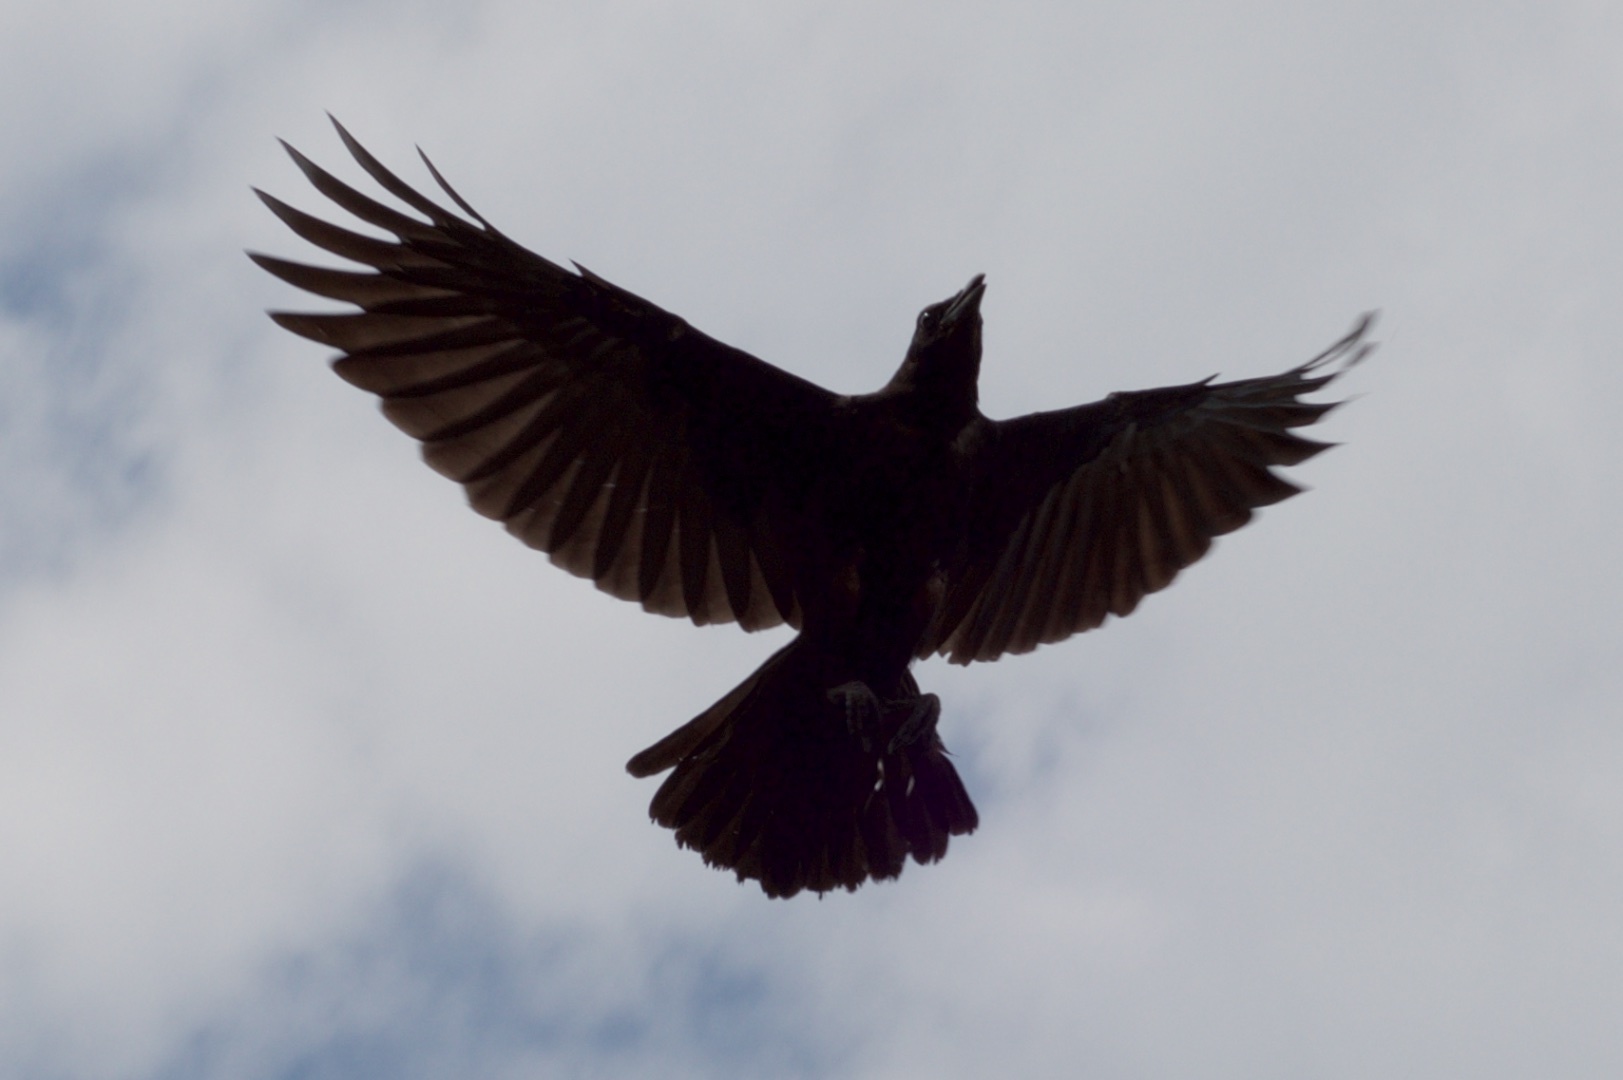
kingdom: Animalia
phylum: Chordata
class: Aves
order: Passeriformes
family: Corvidae
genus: Corvus
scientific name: Corvus brachyrhynchos
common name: American crow
